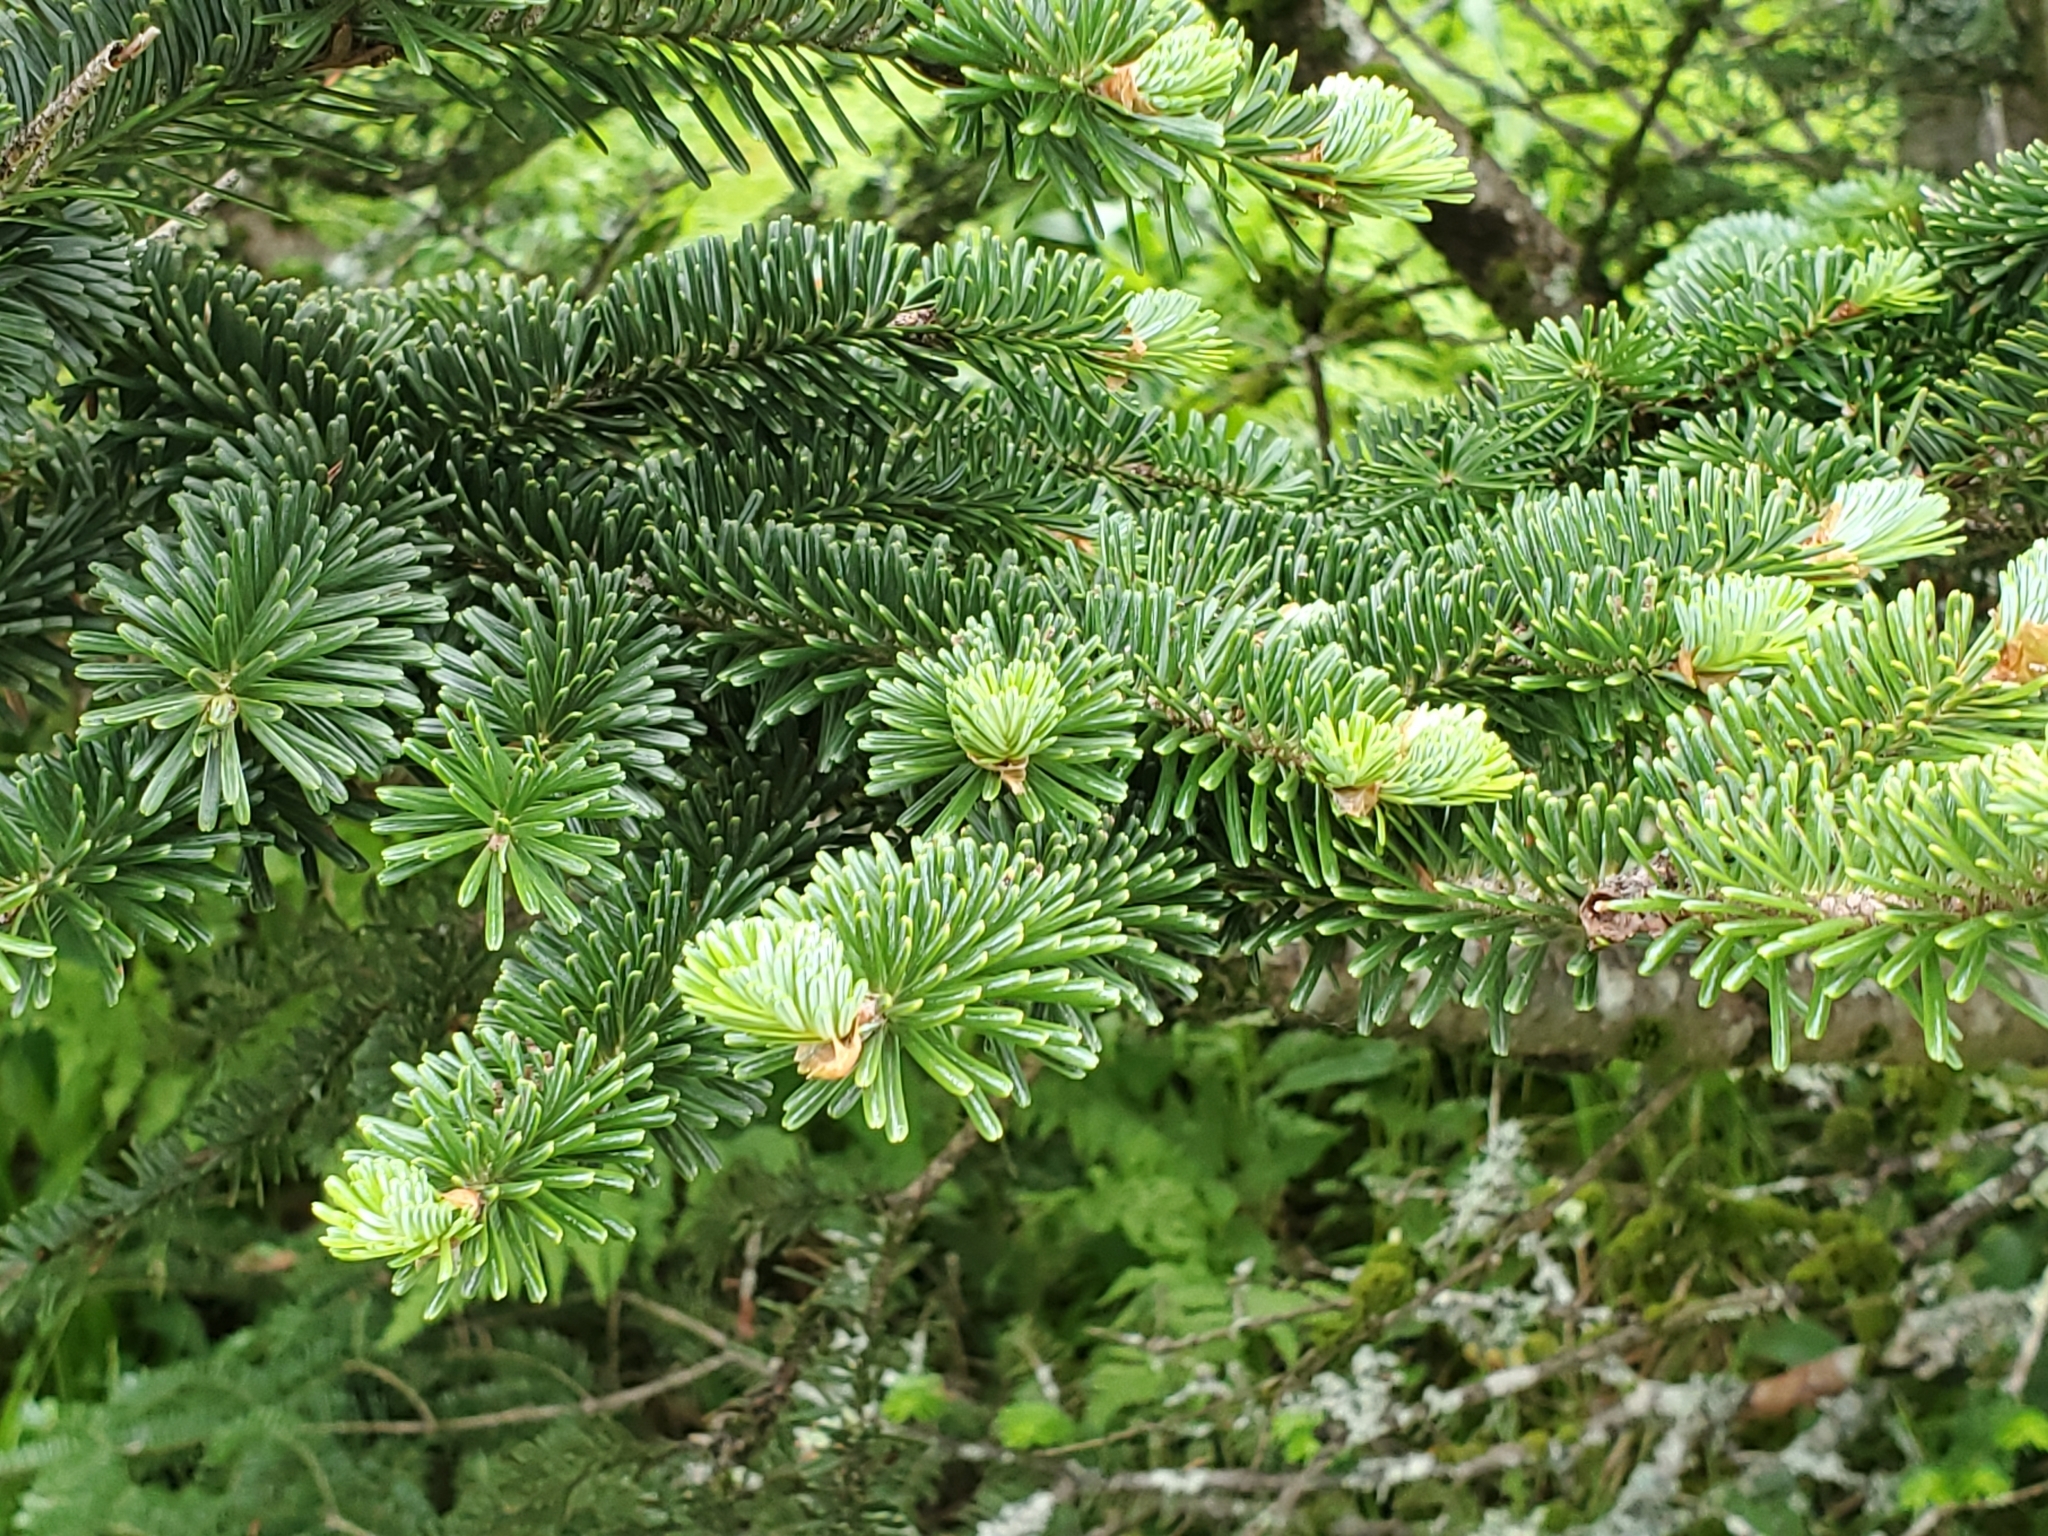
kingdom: Plantae
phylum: Tracheophyta
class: Pinopsida
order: Pinales
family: Pinaceae
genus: Abies
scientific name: Abies fraseri
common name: Fraser fir
